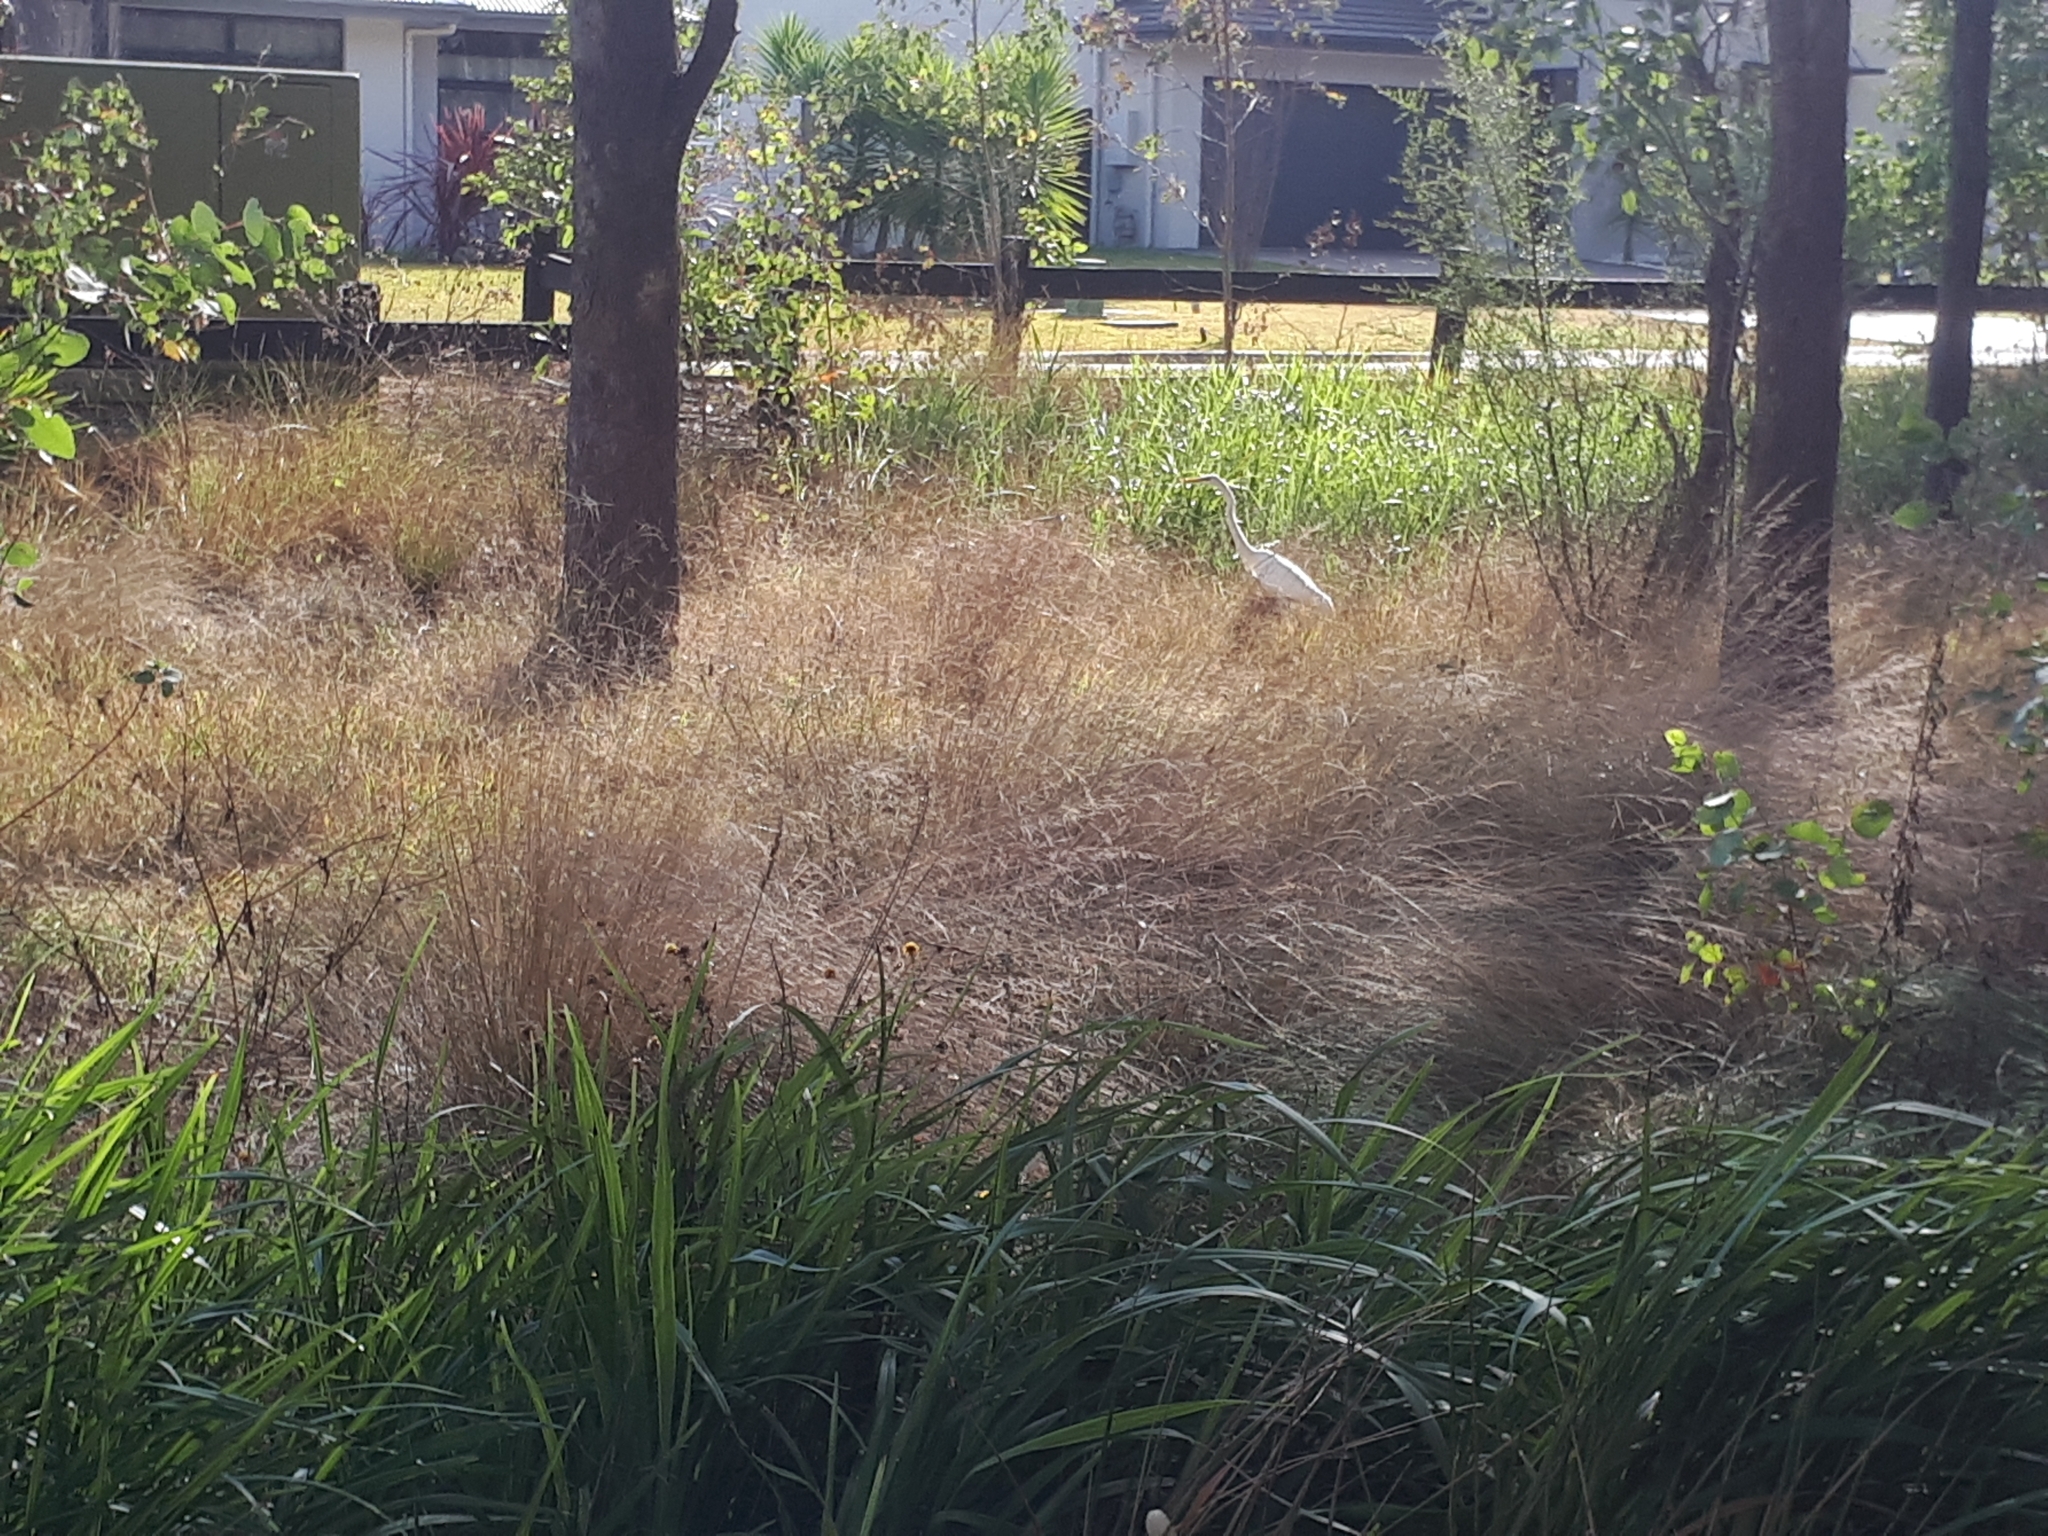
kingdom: Animalia
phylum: Chordata
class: Aves
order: Pelecaniformes
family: Ardeidae
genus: Ardea
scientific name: Ardea alba
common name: Great egret
